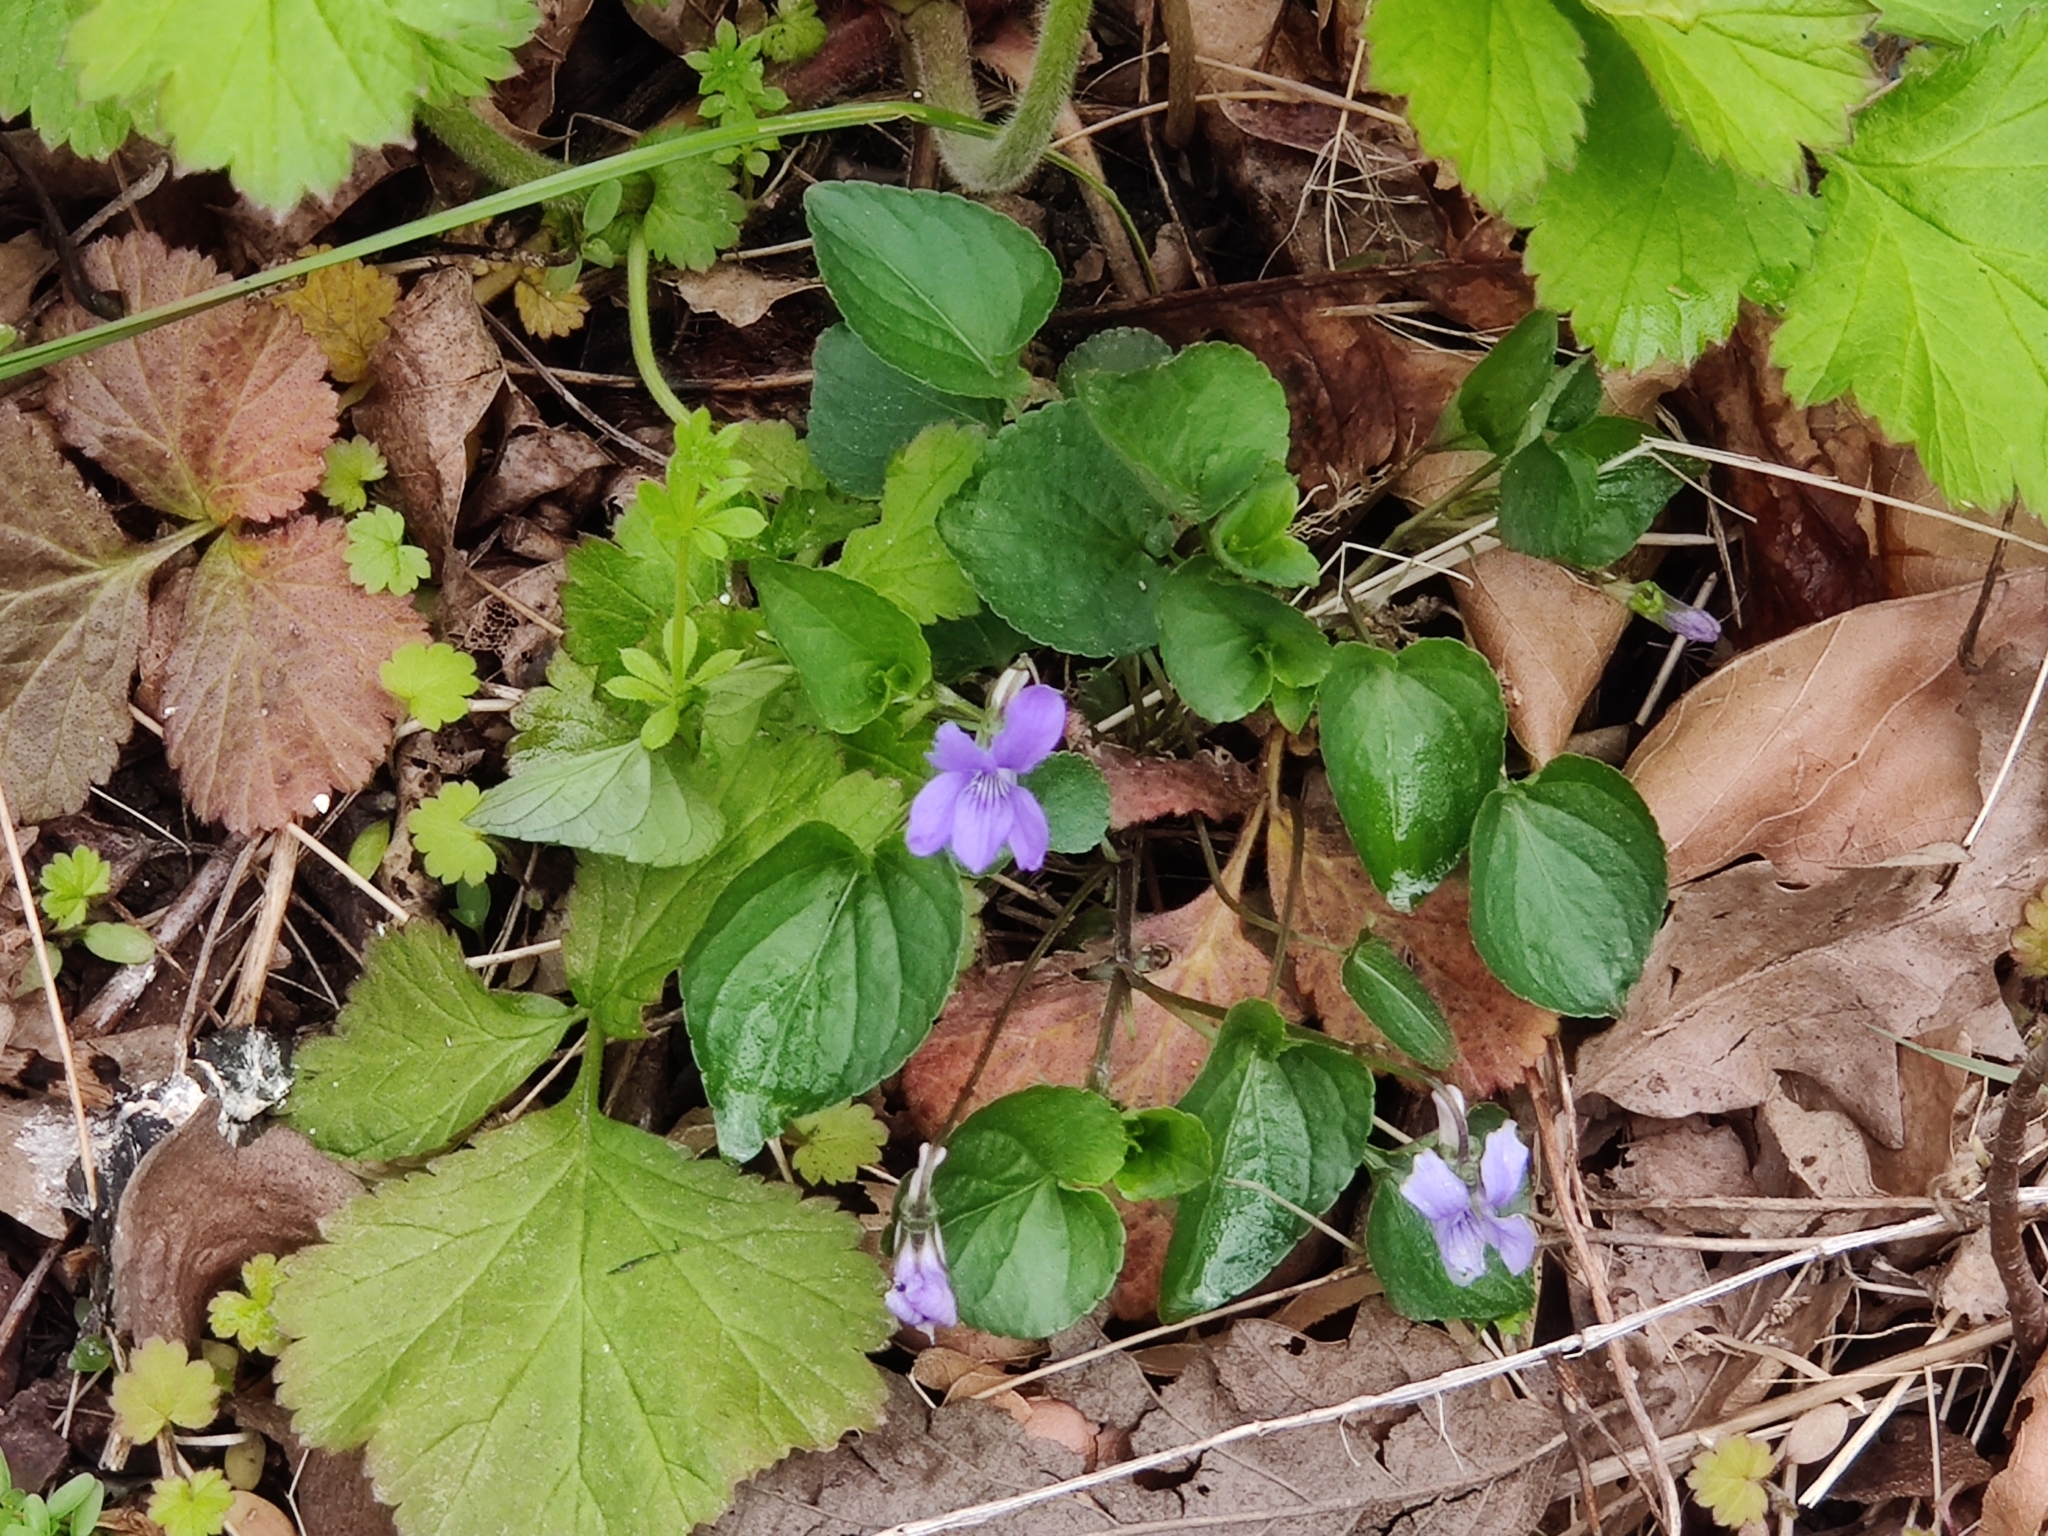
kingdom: Plantae
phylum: Tracheophyta
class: Magnoliopsida
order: Malpighiales
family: Violaceae
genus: Viola
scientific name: Viola riviniana
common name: Common dog-violet
